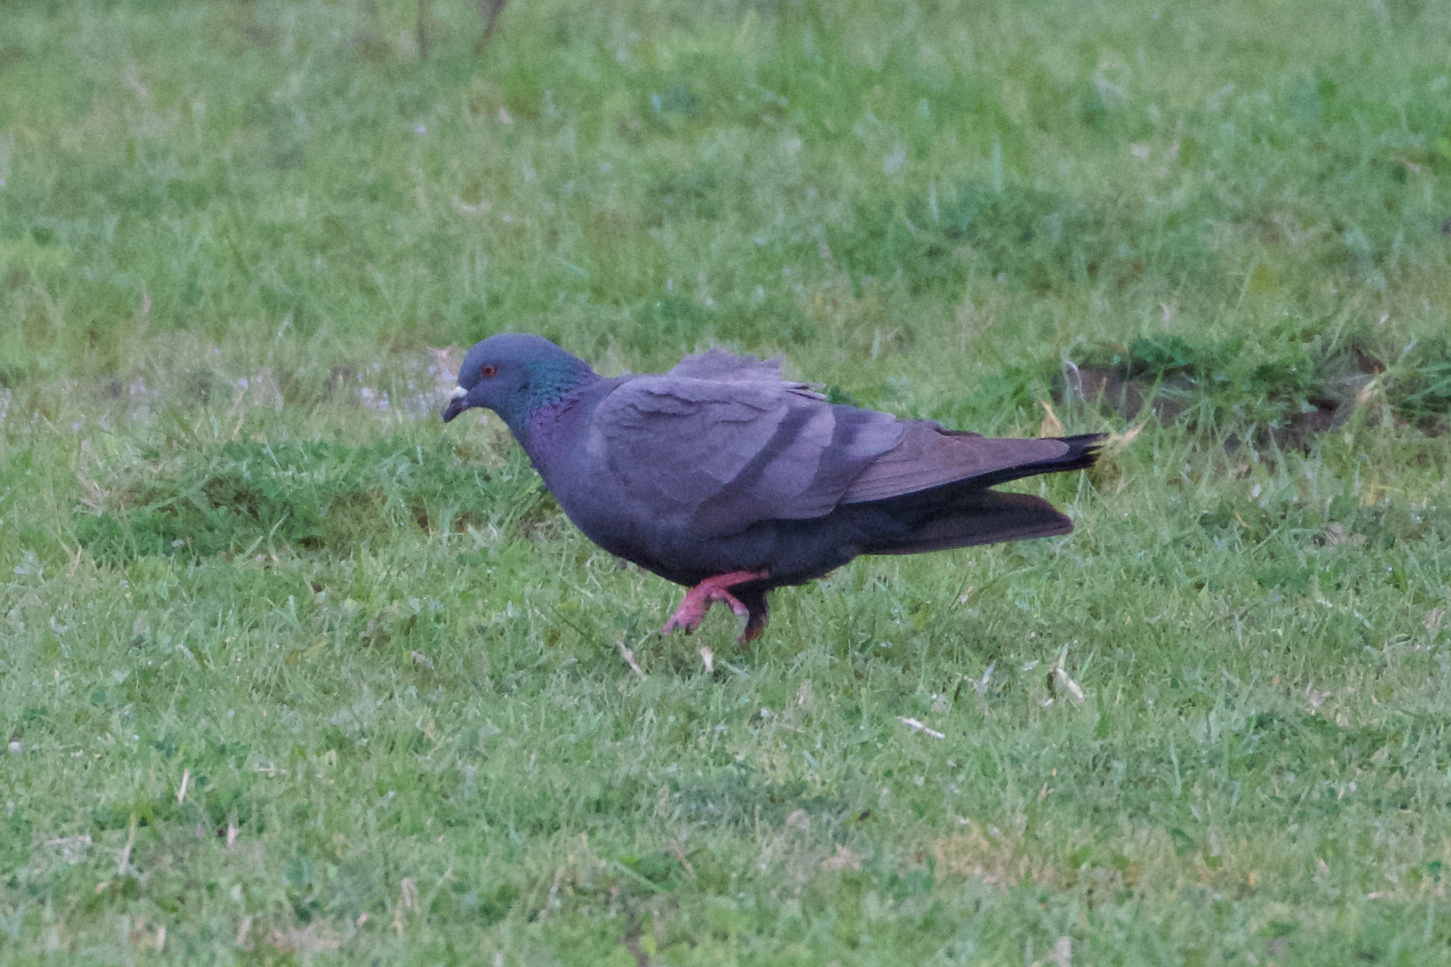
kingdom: Animalia
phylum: Chordata
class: Aves
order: Columbiformes
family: Columbidae
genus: Columba
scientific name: Columba livia
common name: Rock pigeon
